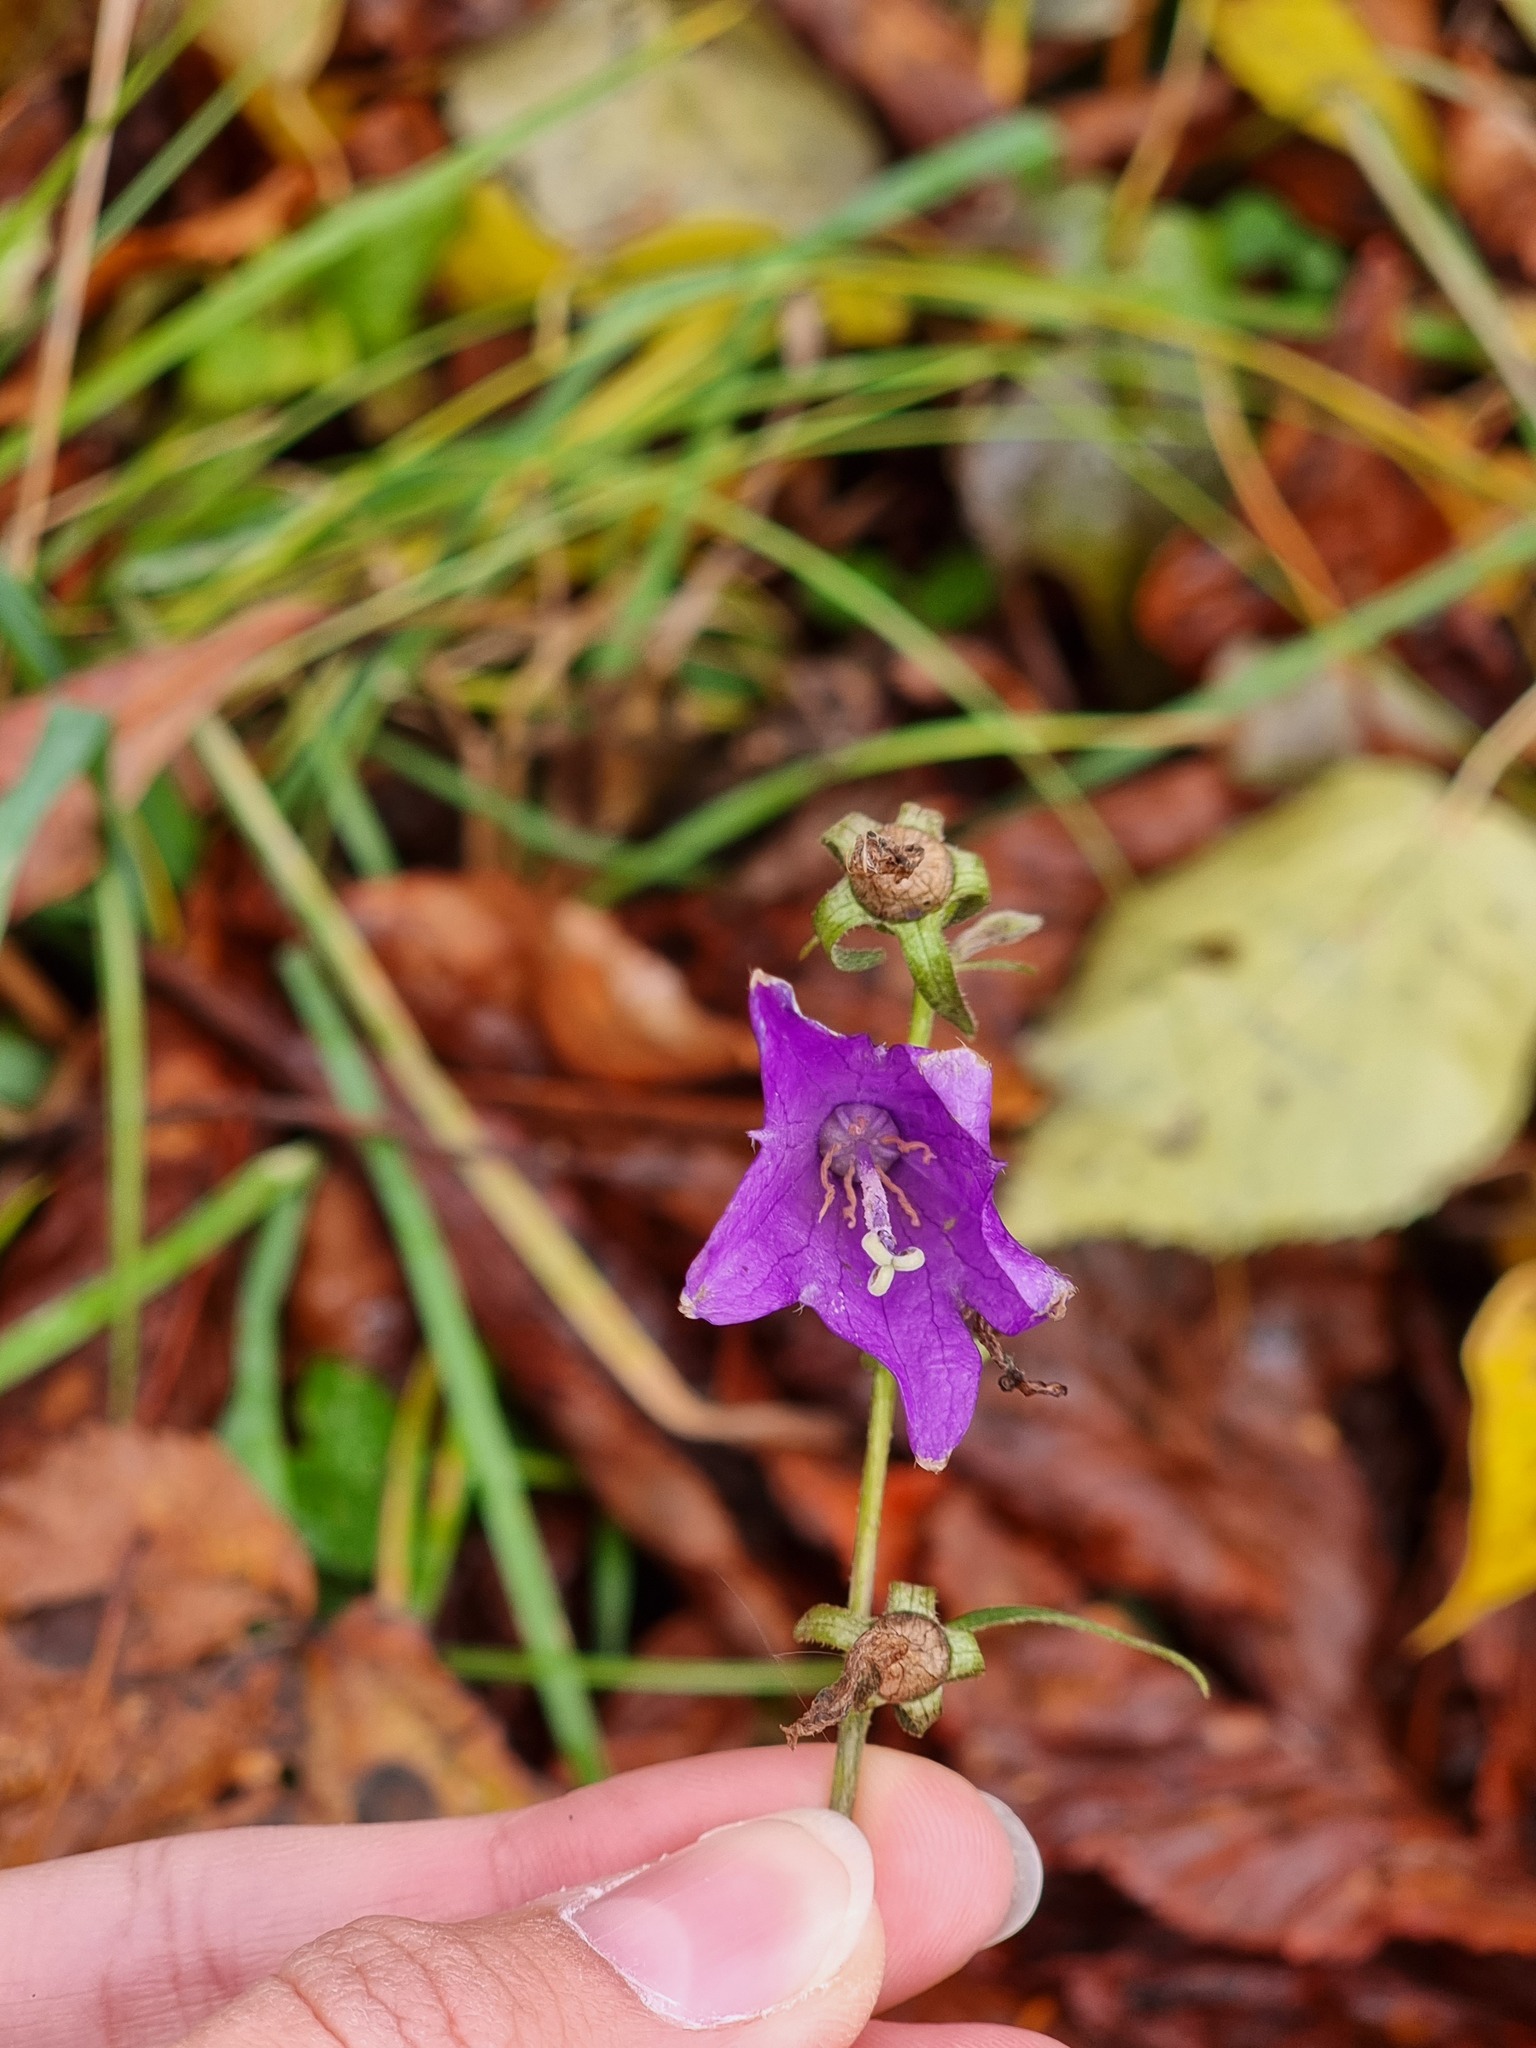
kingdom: Plantae
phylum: Tracheophyta
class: Magnoliopsida
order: Asterales
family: Campanulaceae
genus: Campanula
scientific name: Campanula rapunculoides
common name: Creeping bellflower
